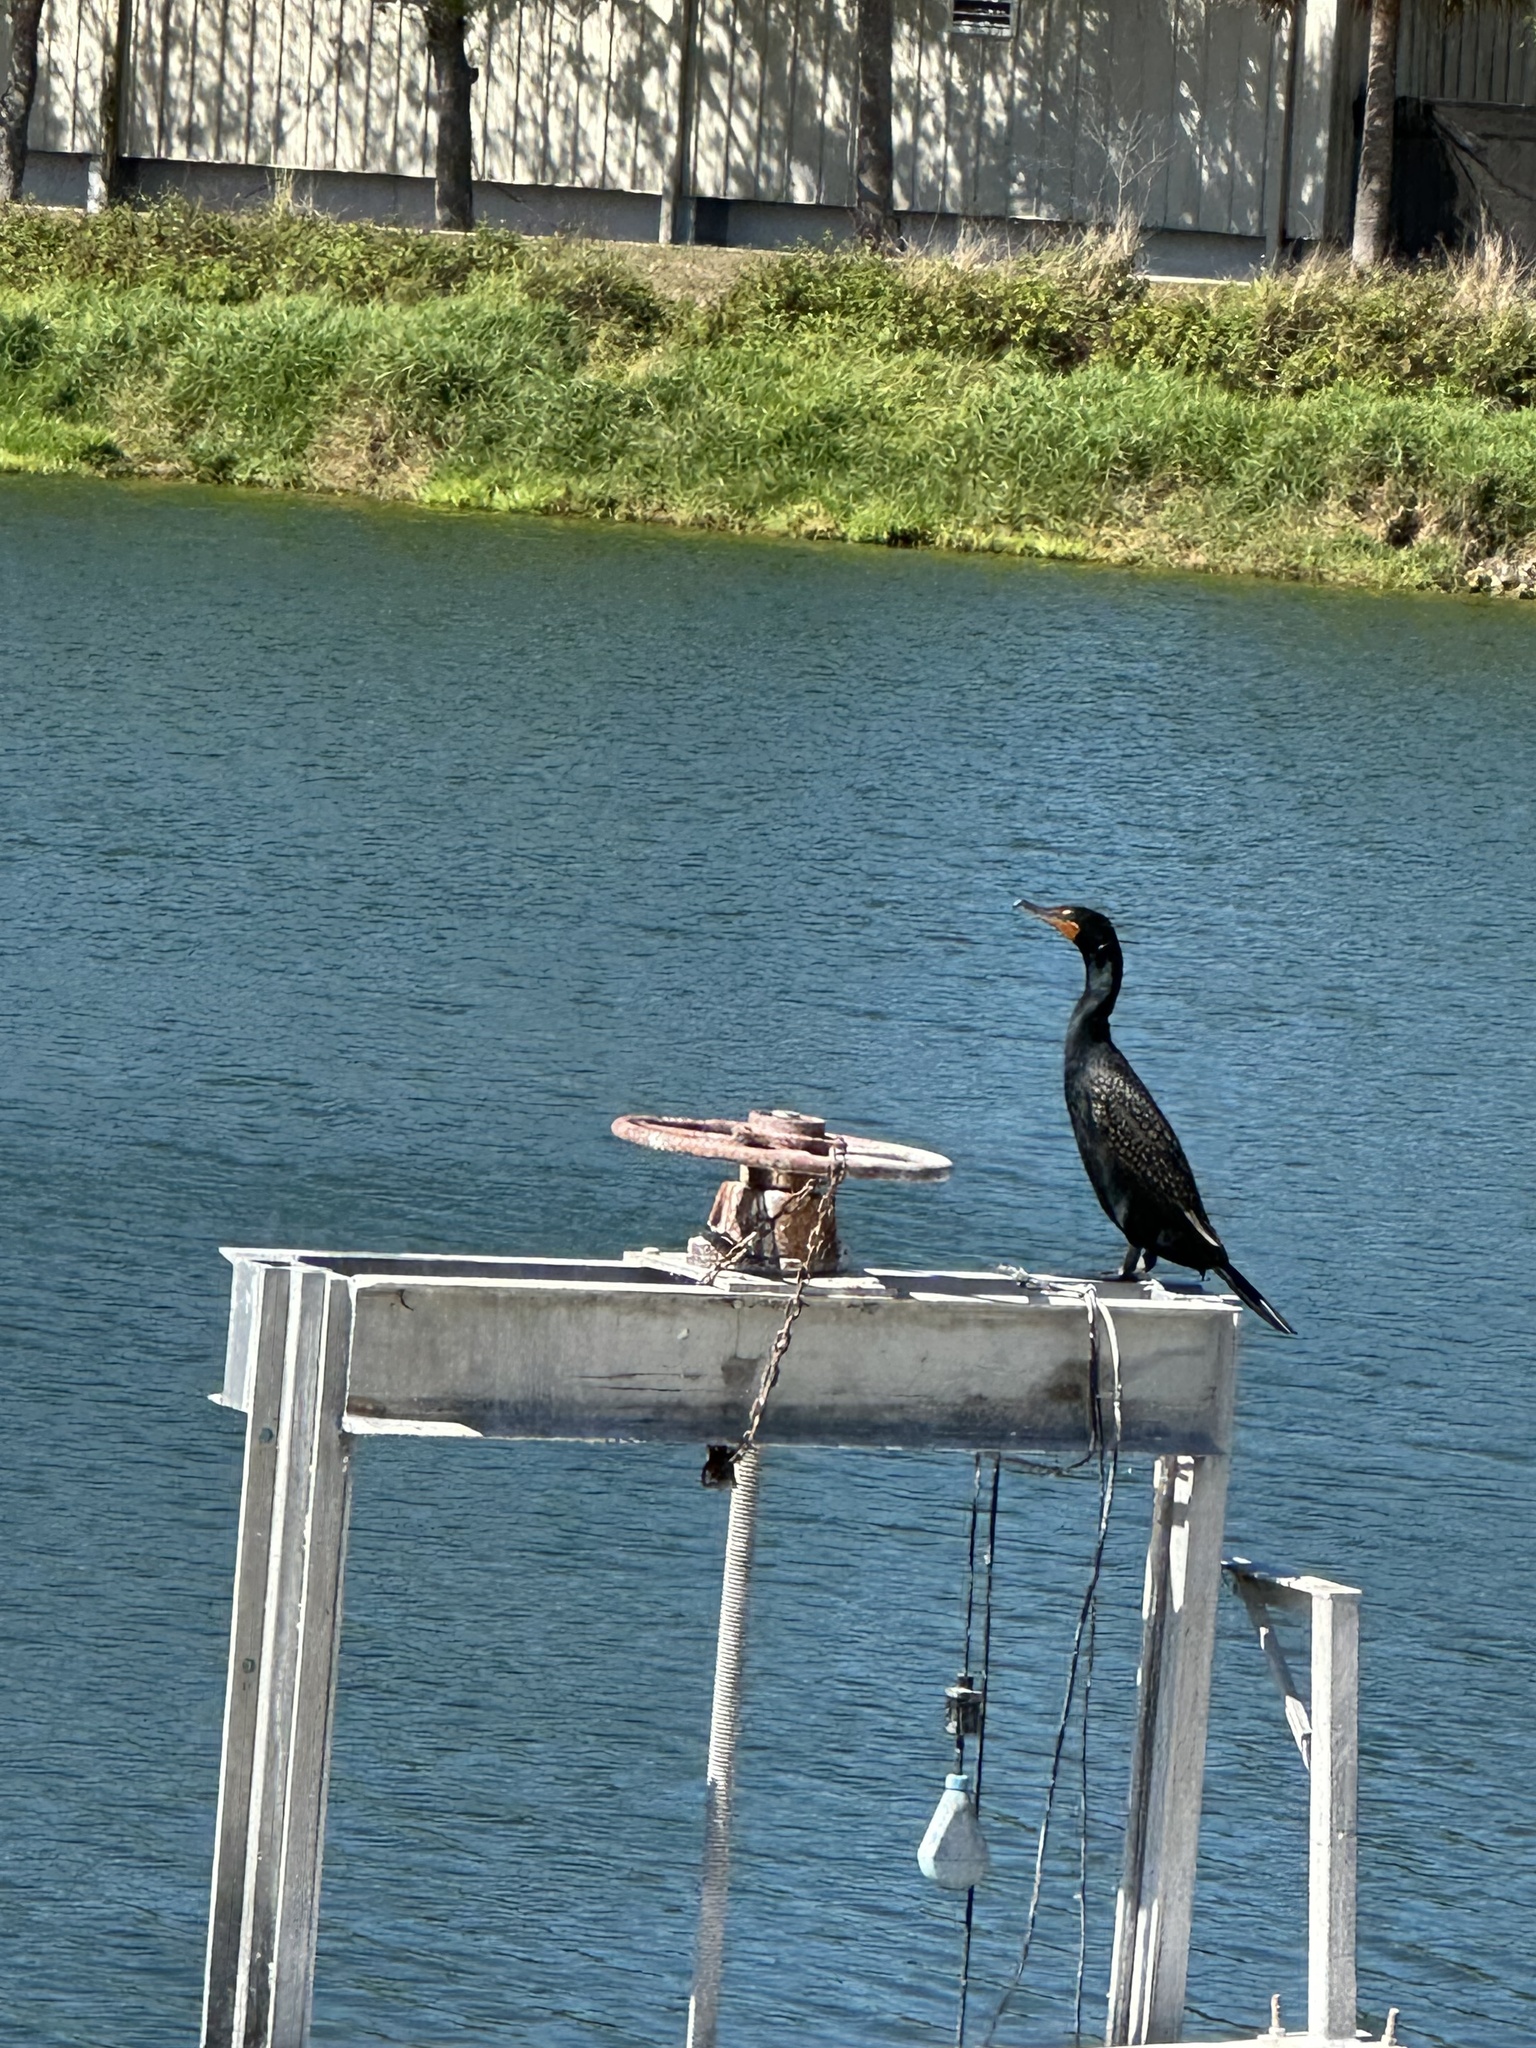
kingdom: Animalia
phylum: Chordata
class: Aves
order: Suliformes
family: Phalacrocoracidae
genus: Phalacrocorax
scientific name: Phalacrocorax auritus
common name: Double-crested cormorant
